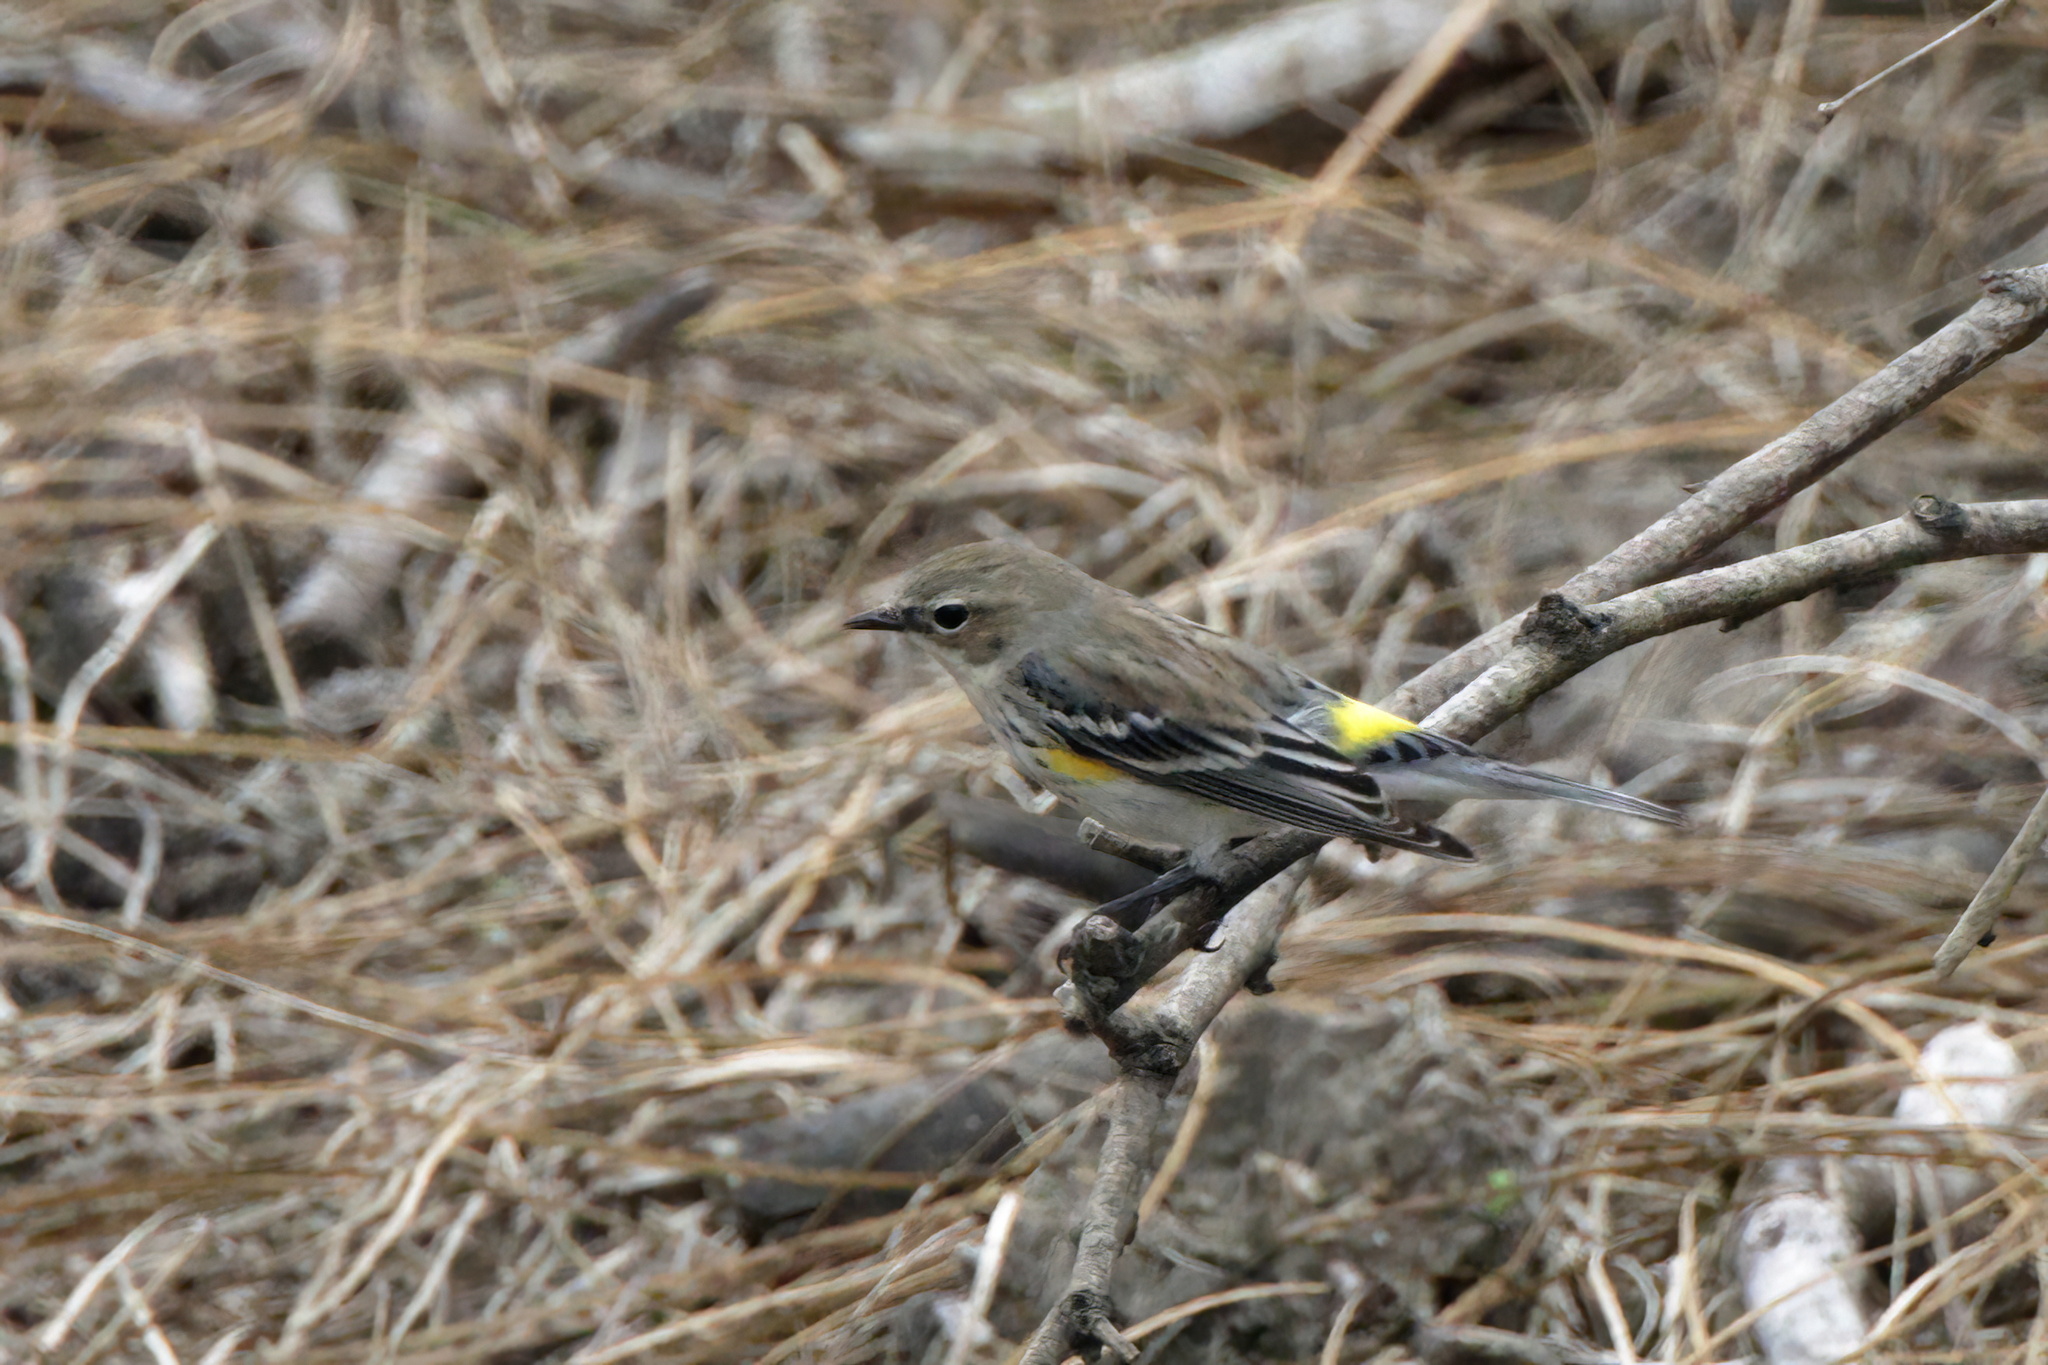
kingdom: Animalia
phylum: Chordata
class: Aves
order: Passeriformes
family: Parulidae
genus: Setophaga
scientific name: Setophaga coronata
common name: Myrtle warbler
